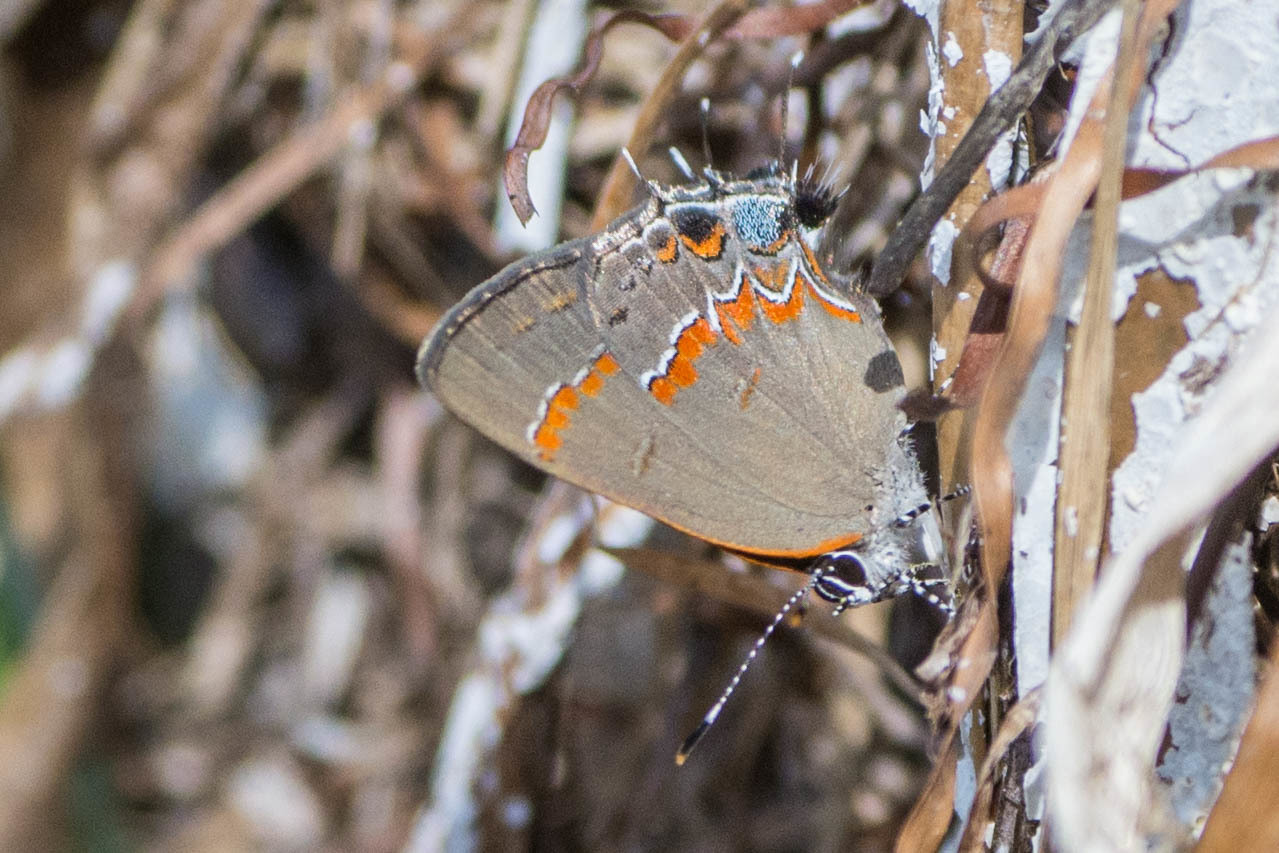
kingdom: Animalia
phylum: Arthropoda
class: Insecta
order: Lepidoptera
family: Lycaenidae
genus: Calycopis
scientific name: Calycopis cecrops
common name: Red-banded hairstreak
